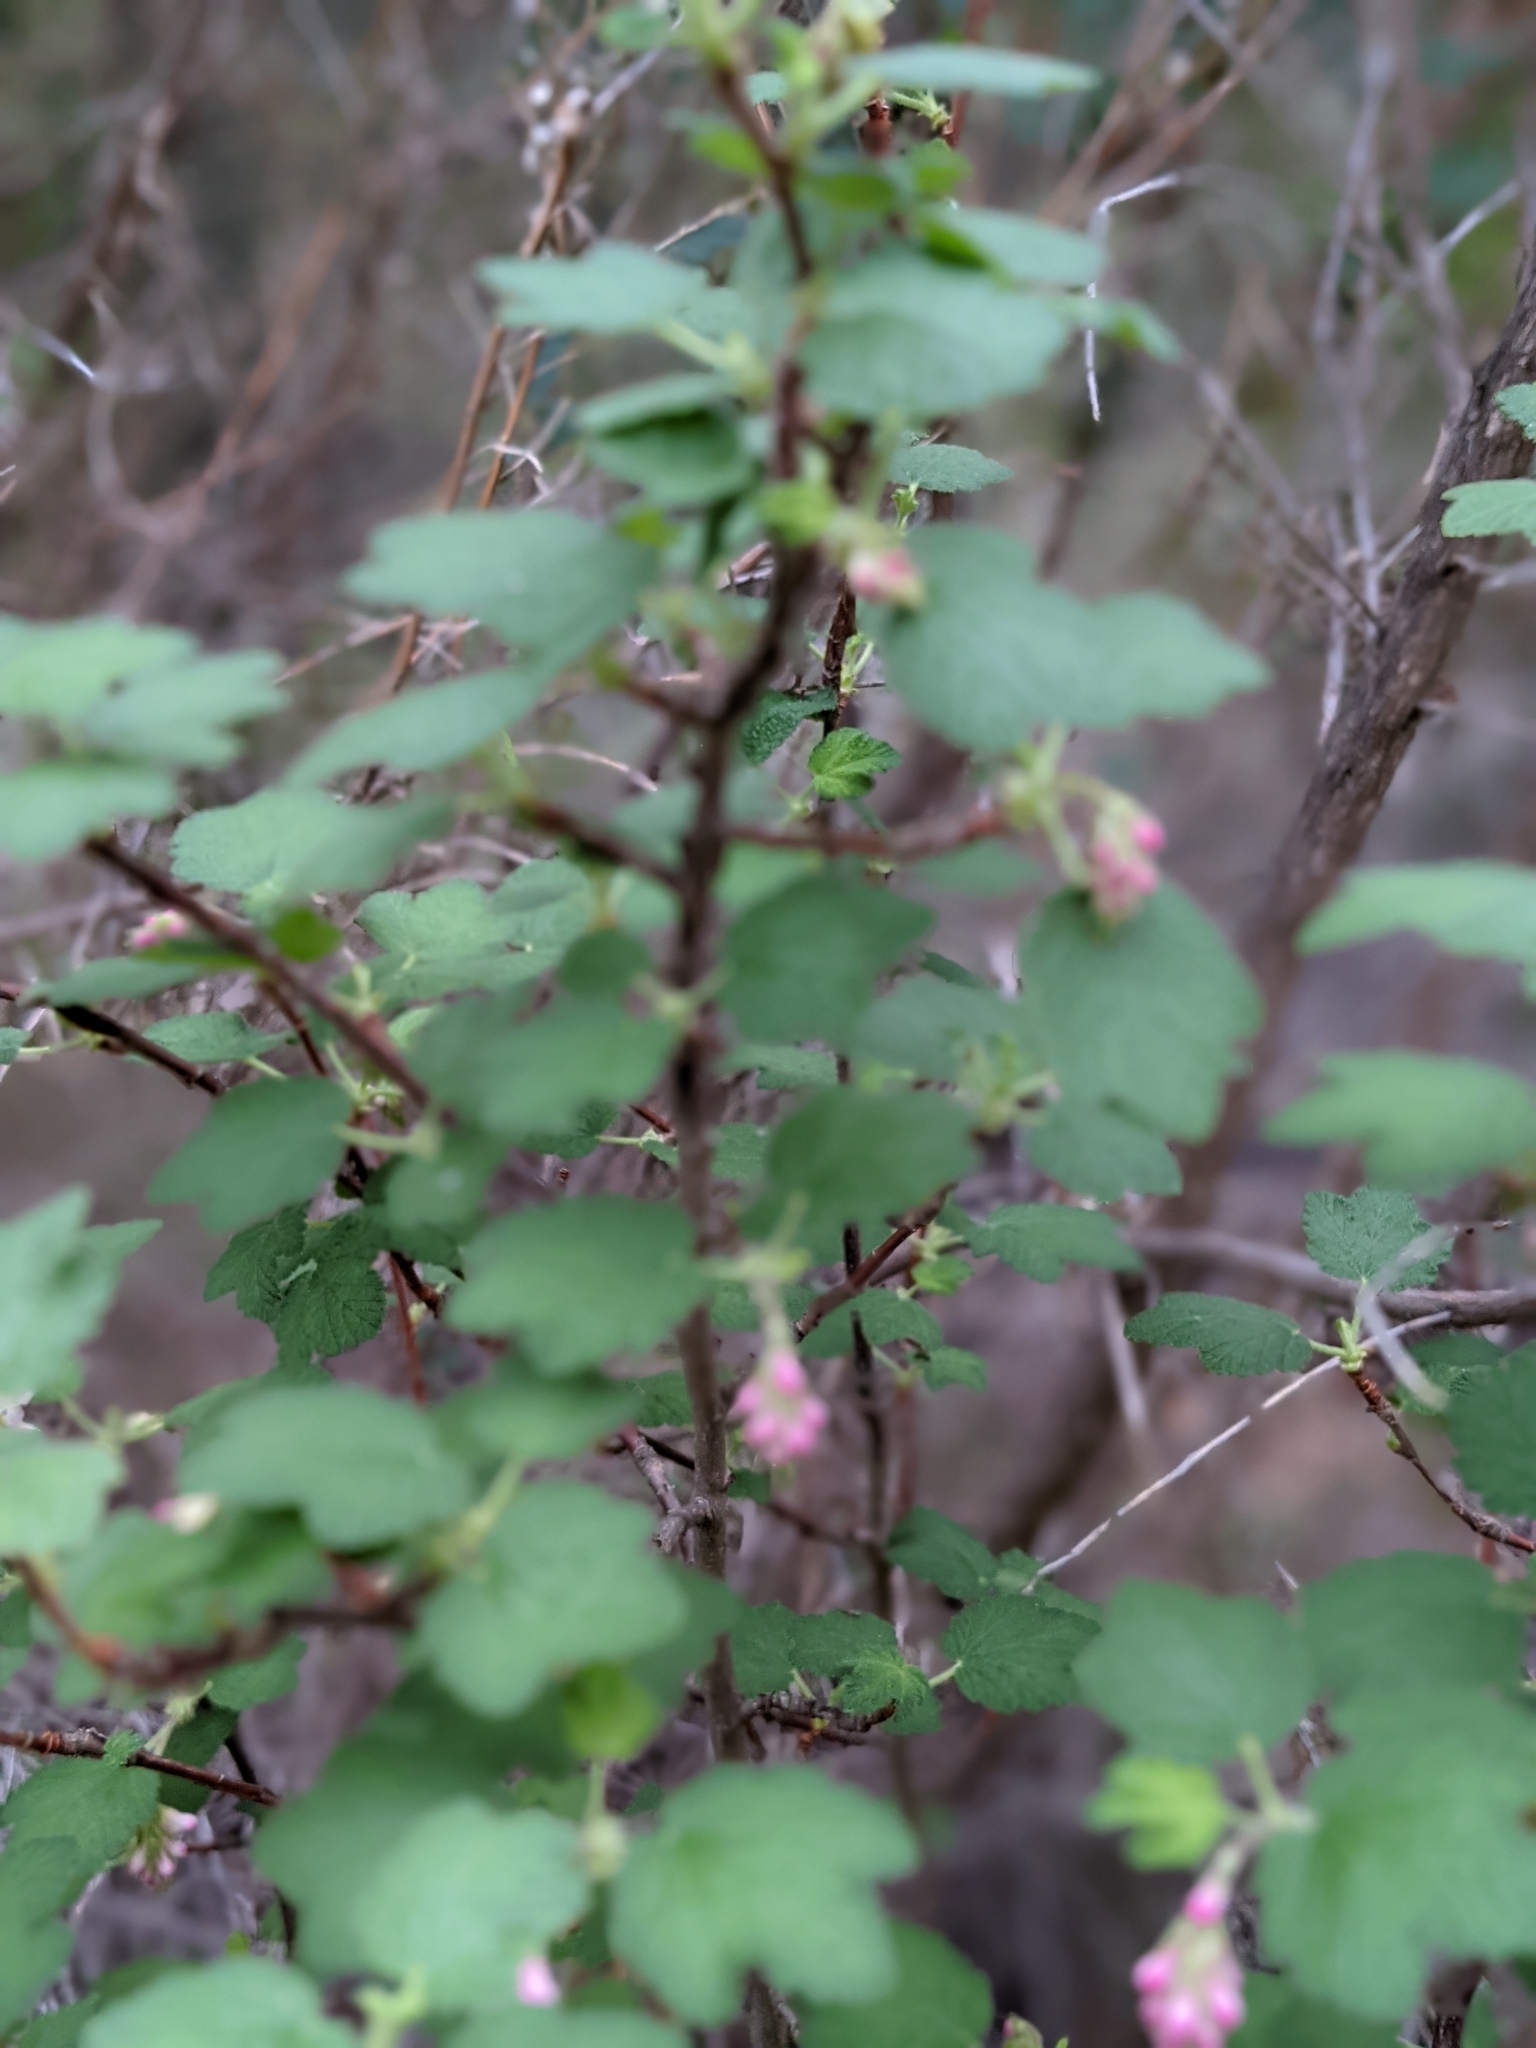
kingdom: Plantae
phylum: Tracheophyta
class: Magnoliopsida
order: Saxifragales
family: Grossulariaceae
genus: Ribes
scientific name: Ribes malvaceum
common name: Chaparral currant
